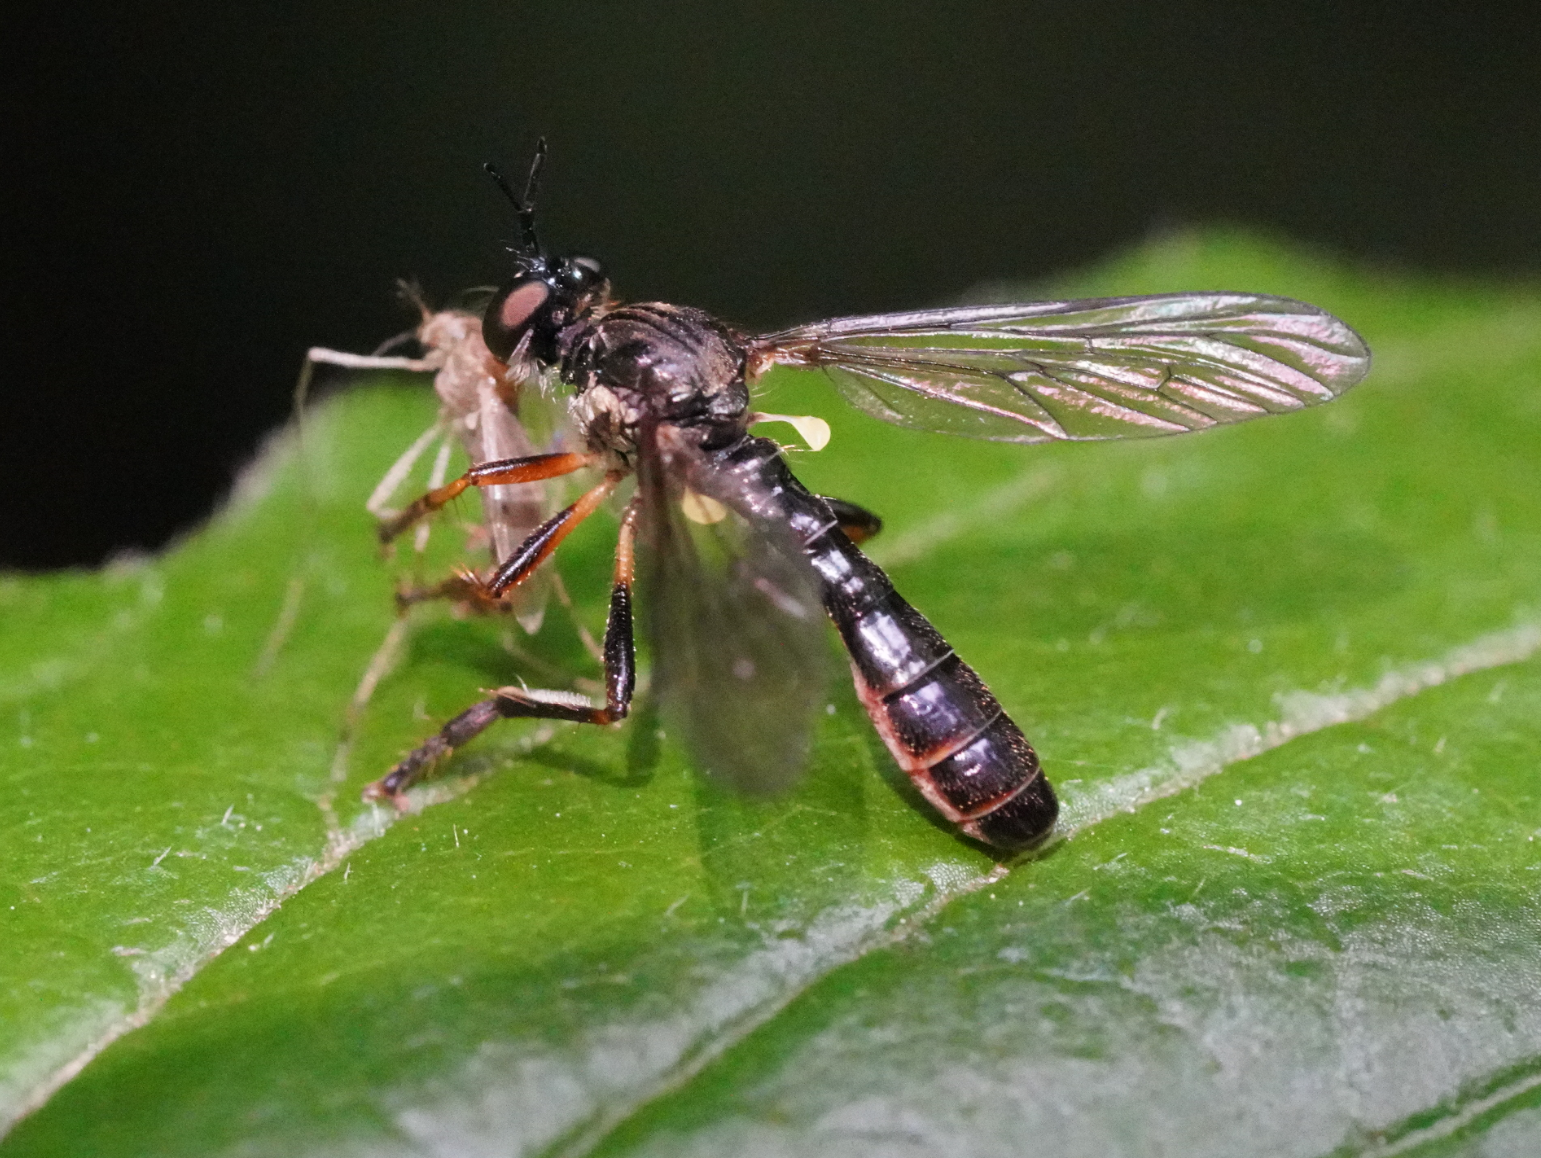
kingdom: Animalia
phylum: Arthropoda
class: Insecta
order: Diptera
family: Asilidae
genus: Dioctria
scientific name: Dioctria hyalipennis
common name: Stripe-legged robberfly
